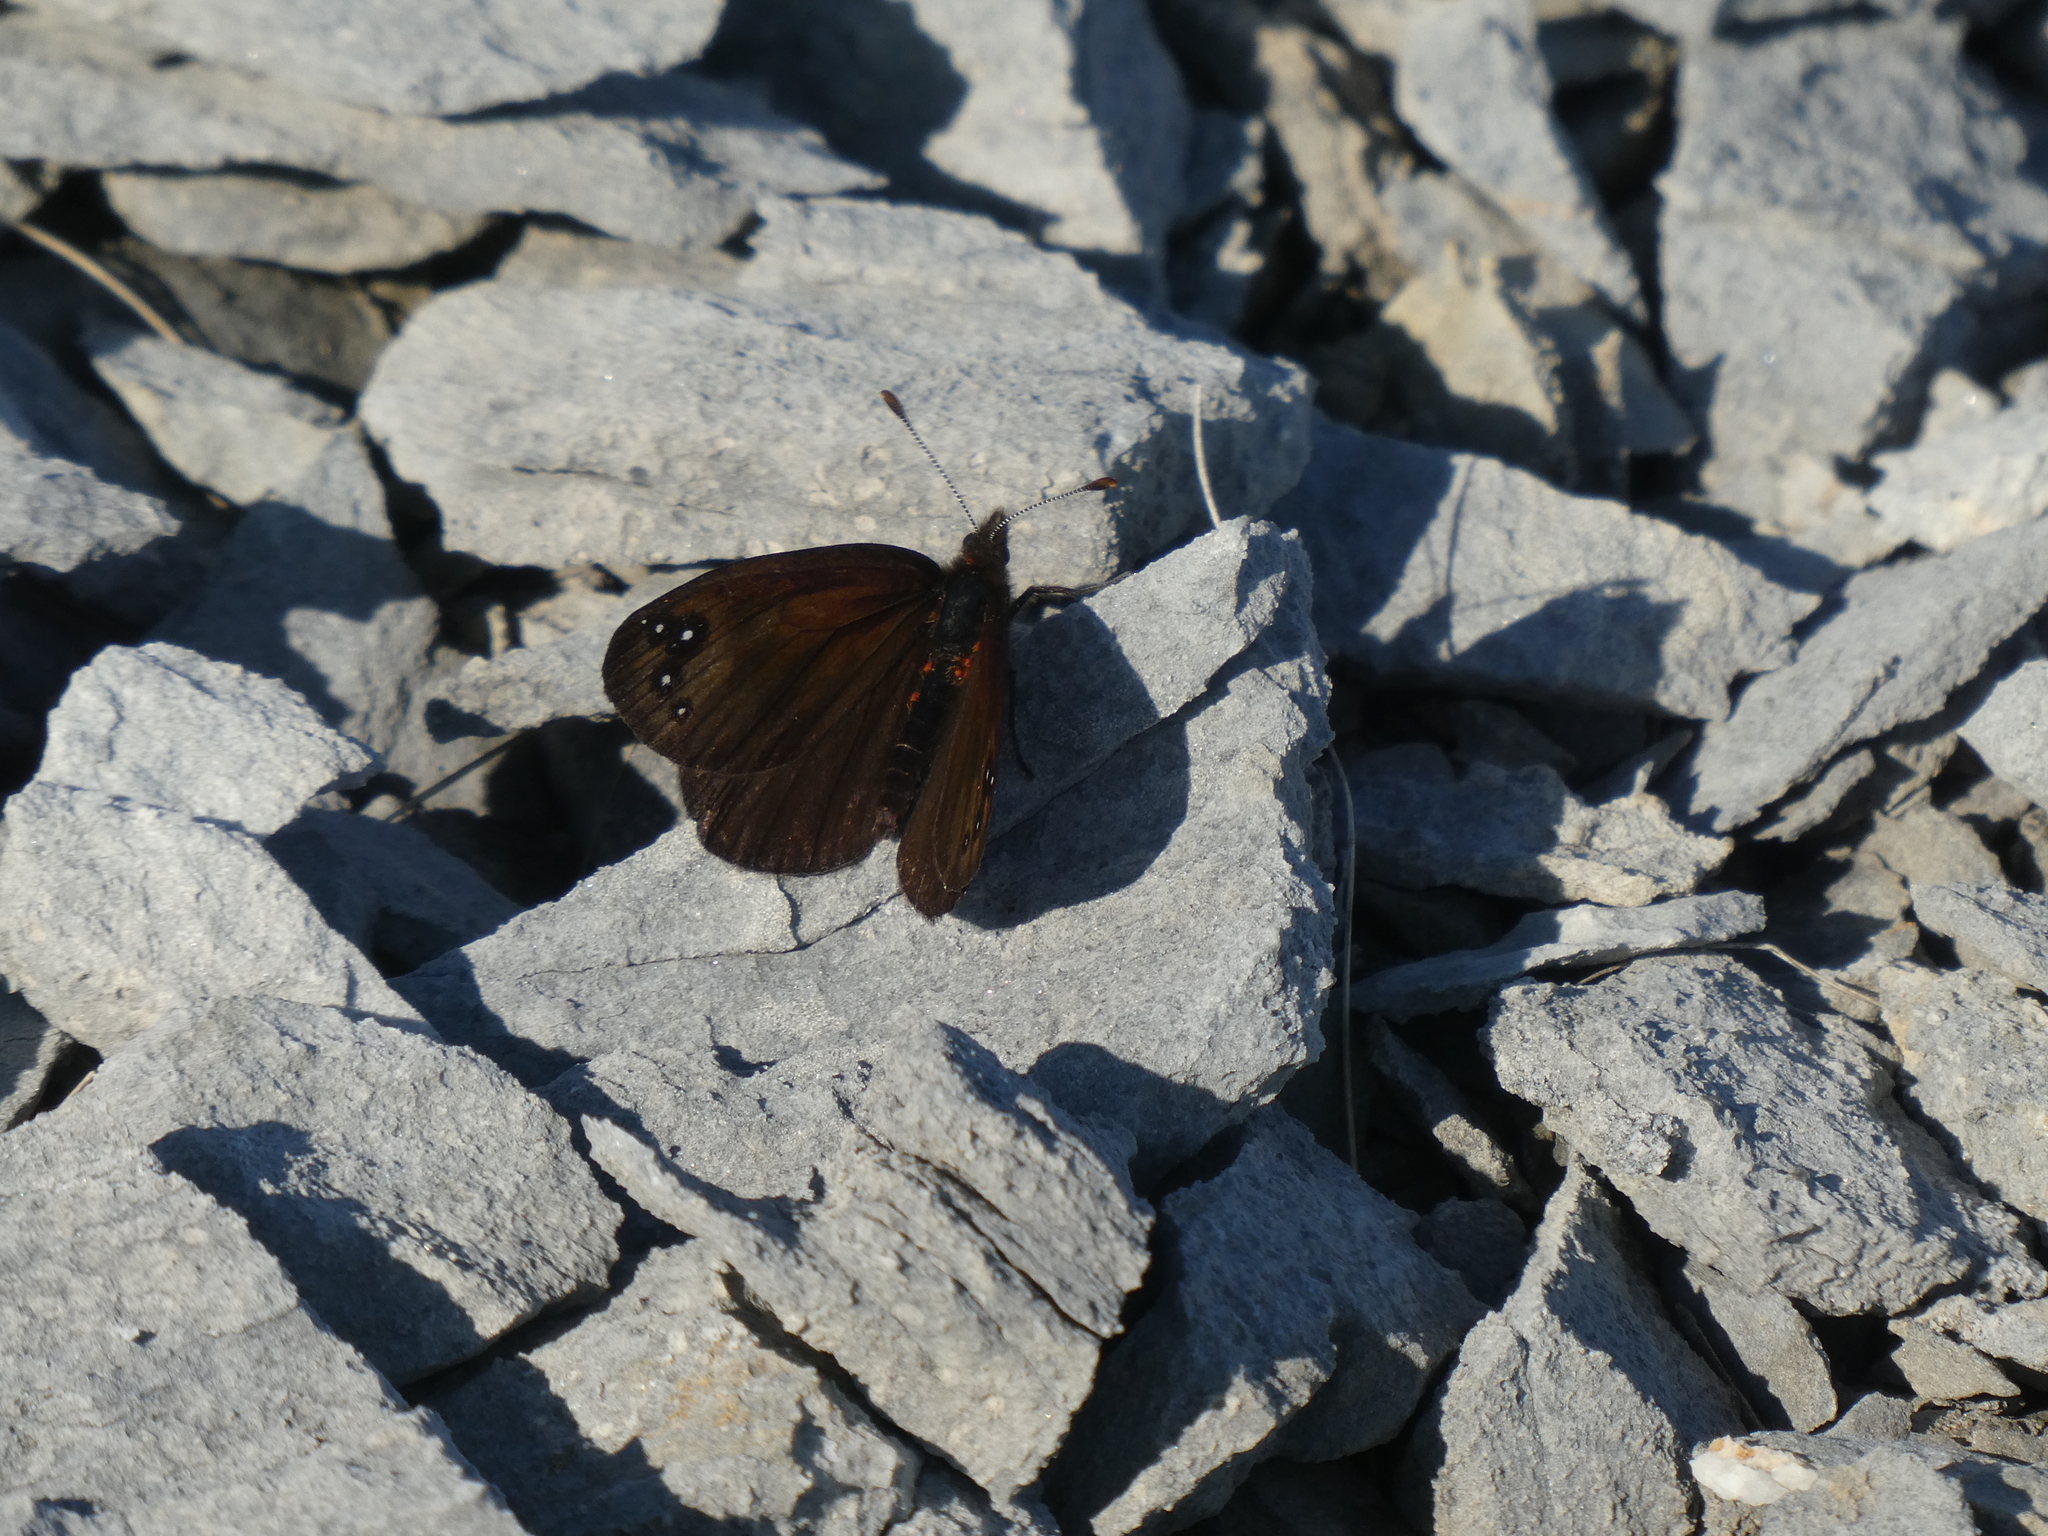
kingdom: Animalia
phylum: Arthropoda
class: Insecta
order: Lepidoptera
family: Nymphalidae
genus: Erebia
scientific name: Erebia Percnodaimon merula
